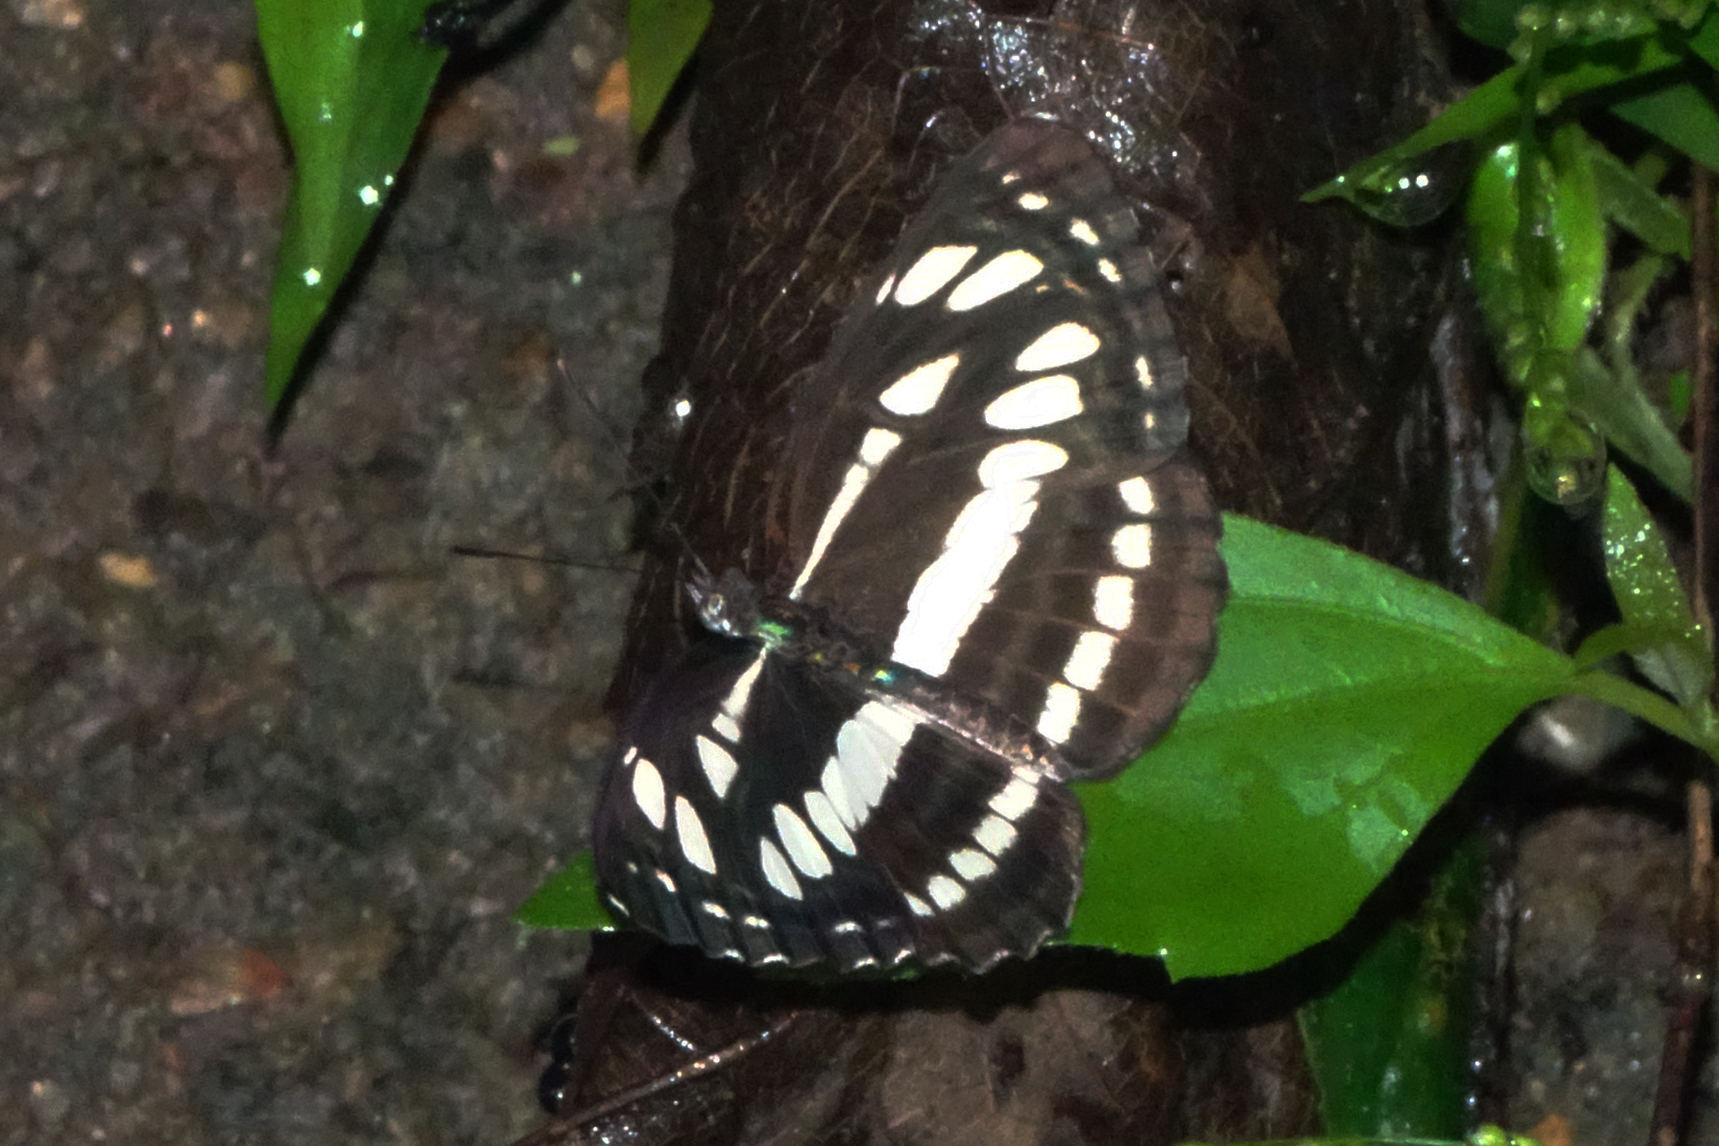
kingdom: Animalia
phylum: Arthropoda
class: Insecta
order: Lepidoptera
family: Nymphalidae
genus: Neptis
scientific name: Neptis hylas
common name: Common sailer
